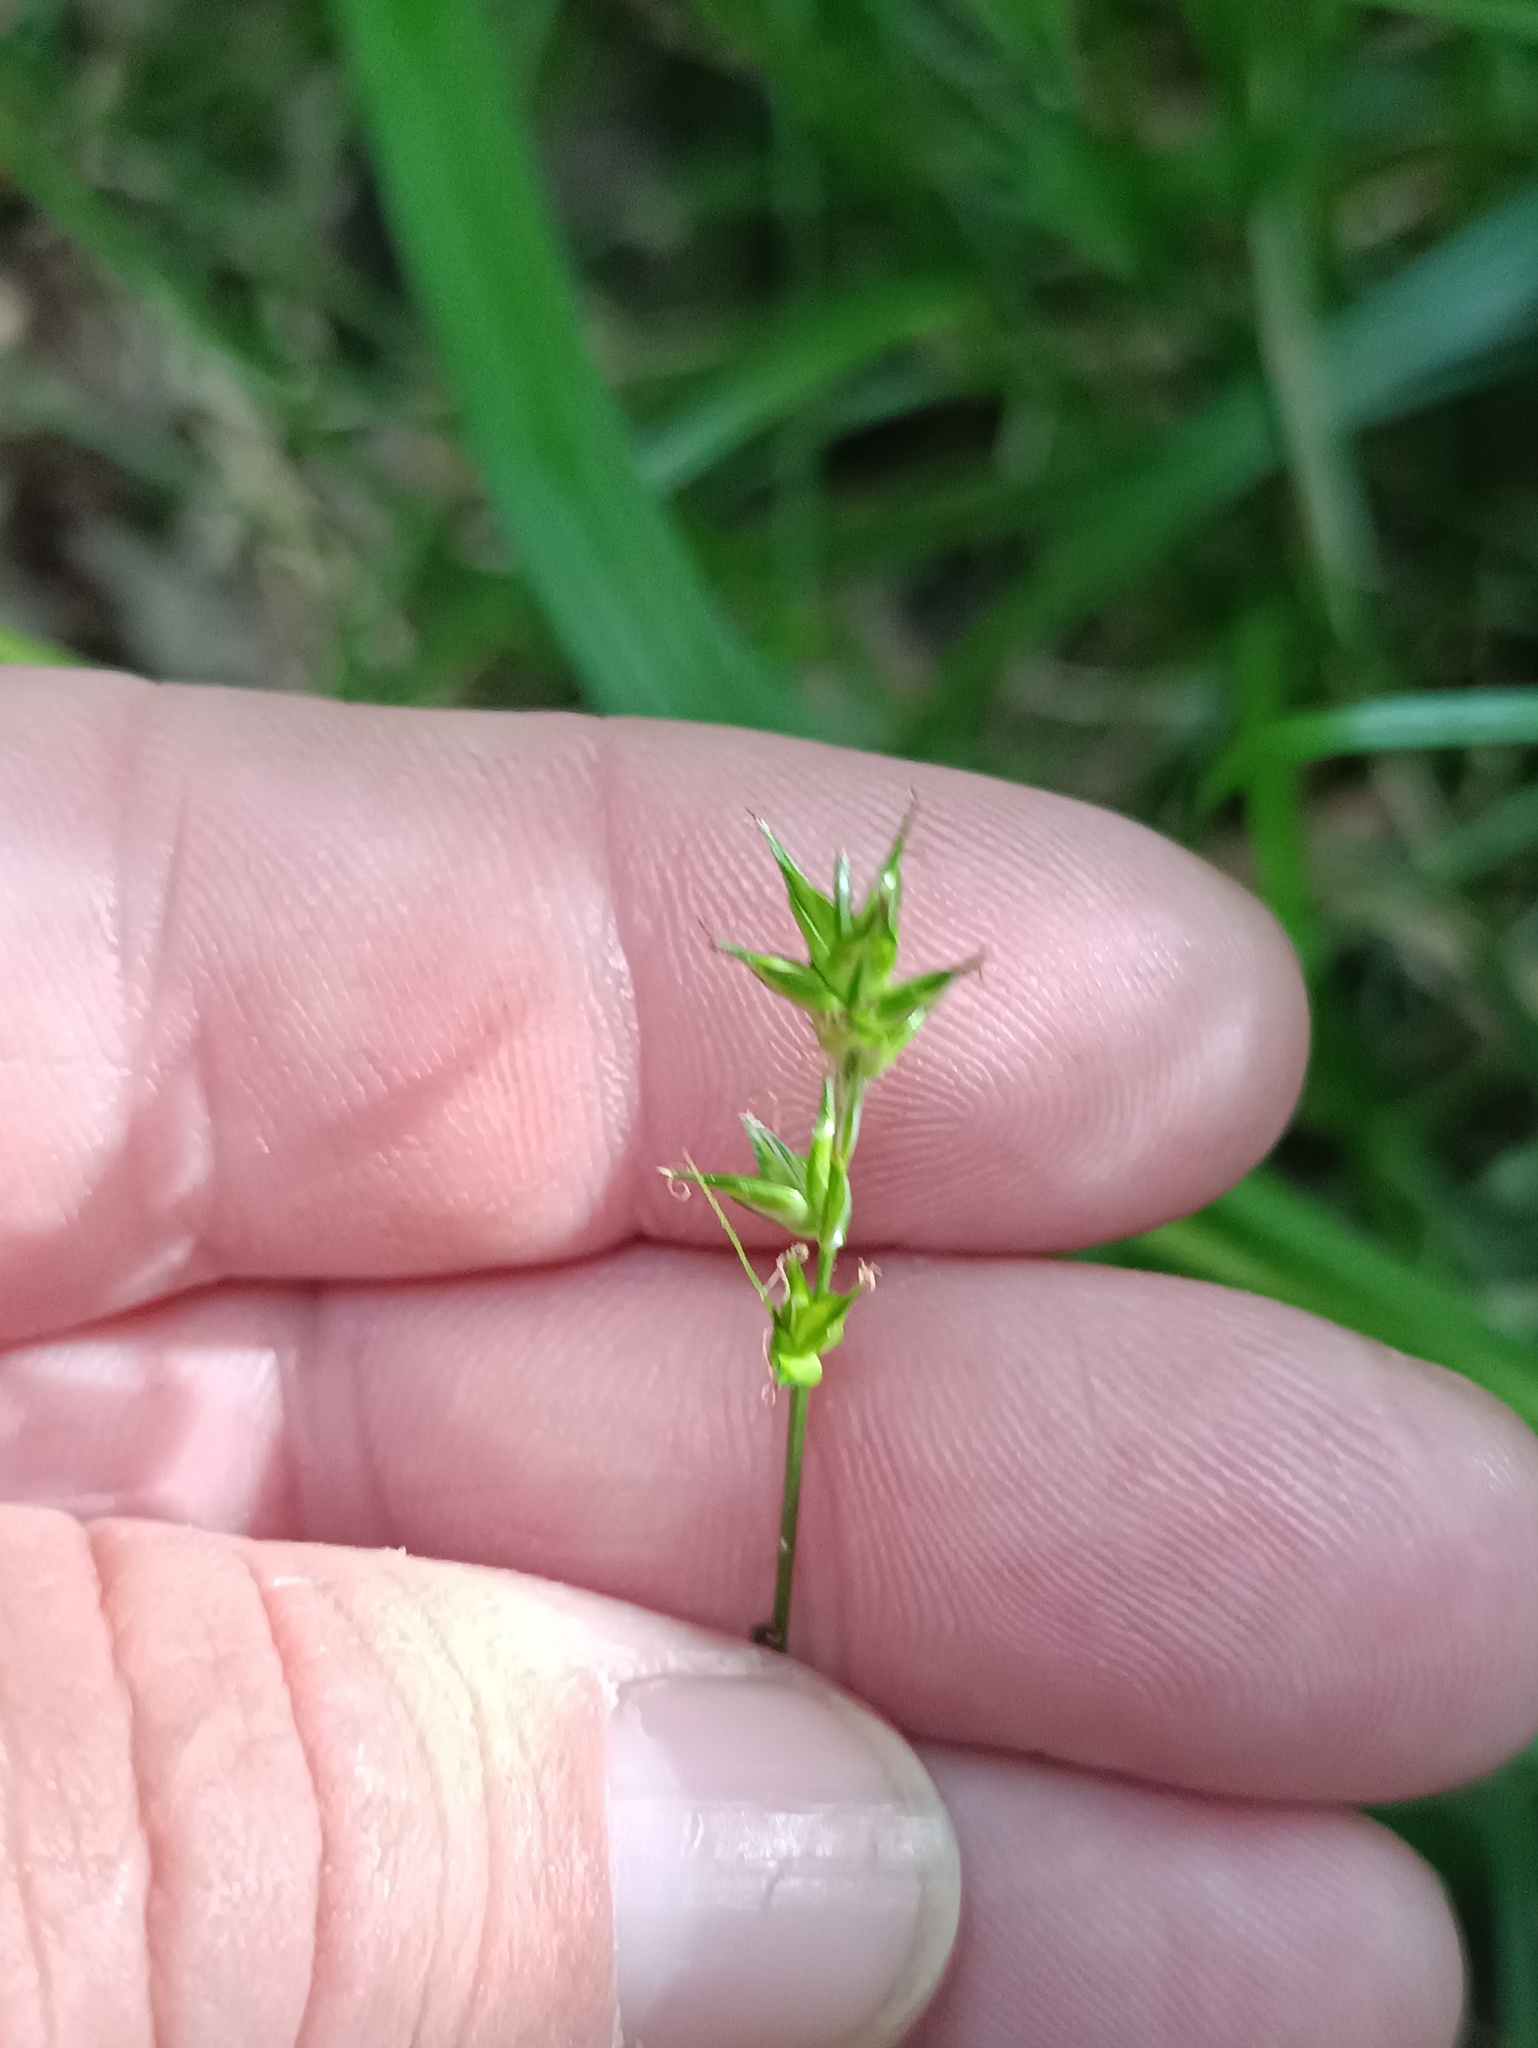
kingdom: Plantae
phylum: Tracheophyta
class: Liliopsida
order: Poales
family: Cyperaceae
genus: Carex
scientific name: Carex spicata
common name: Spiked sedge
